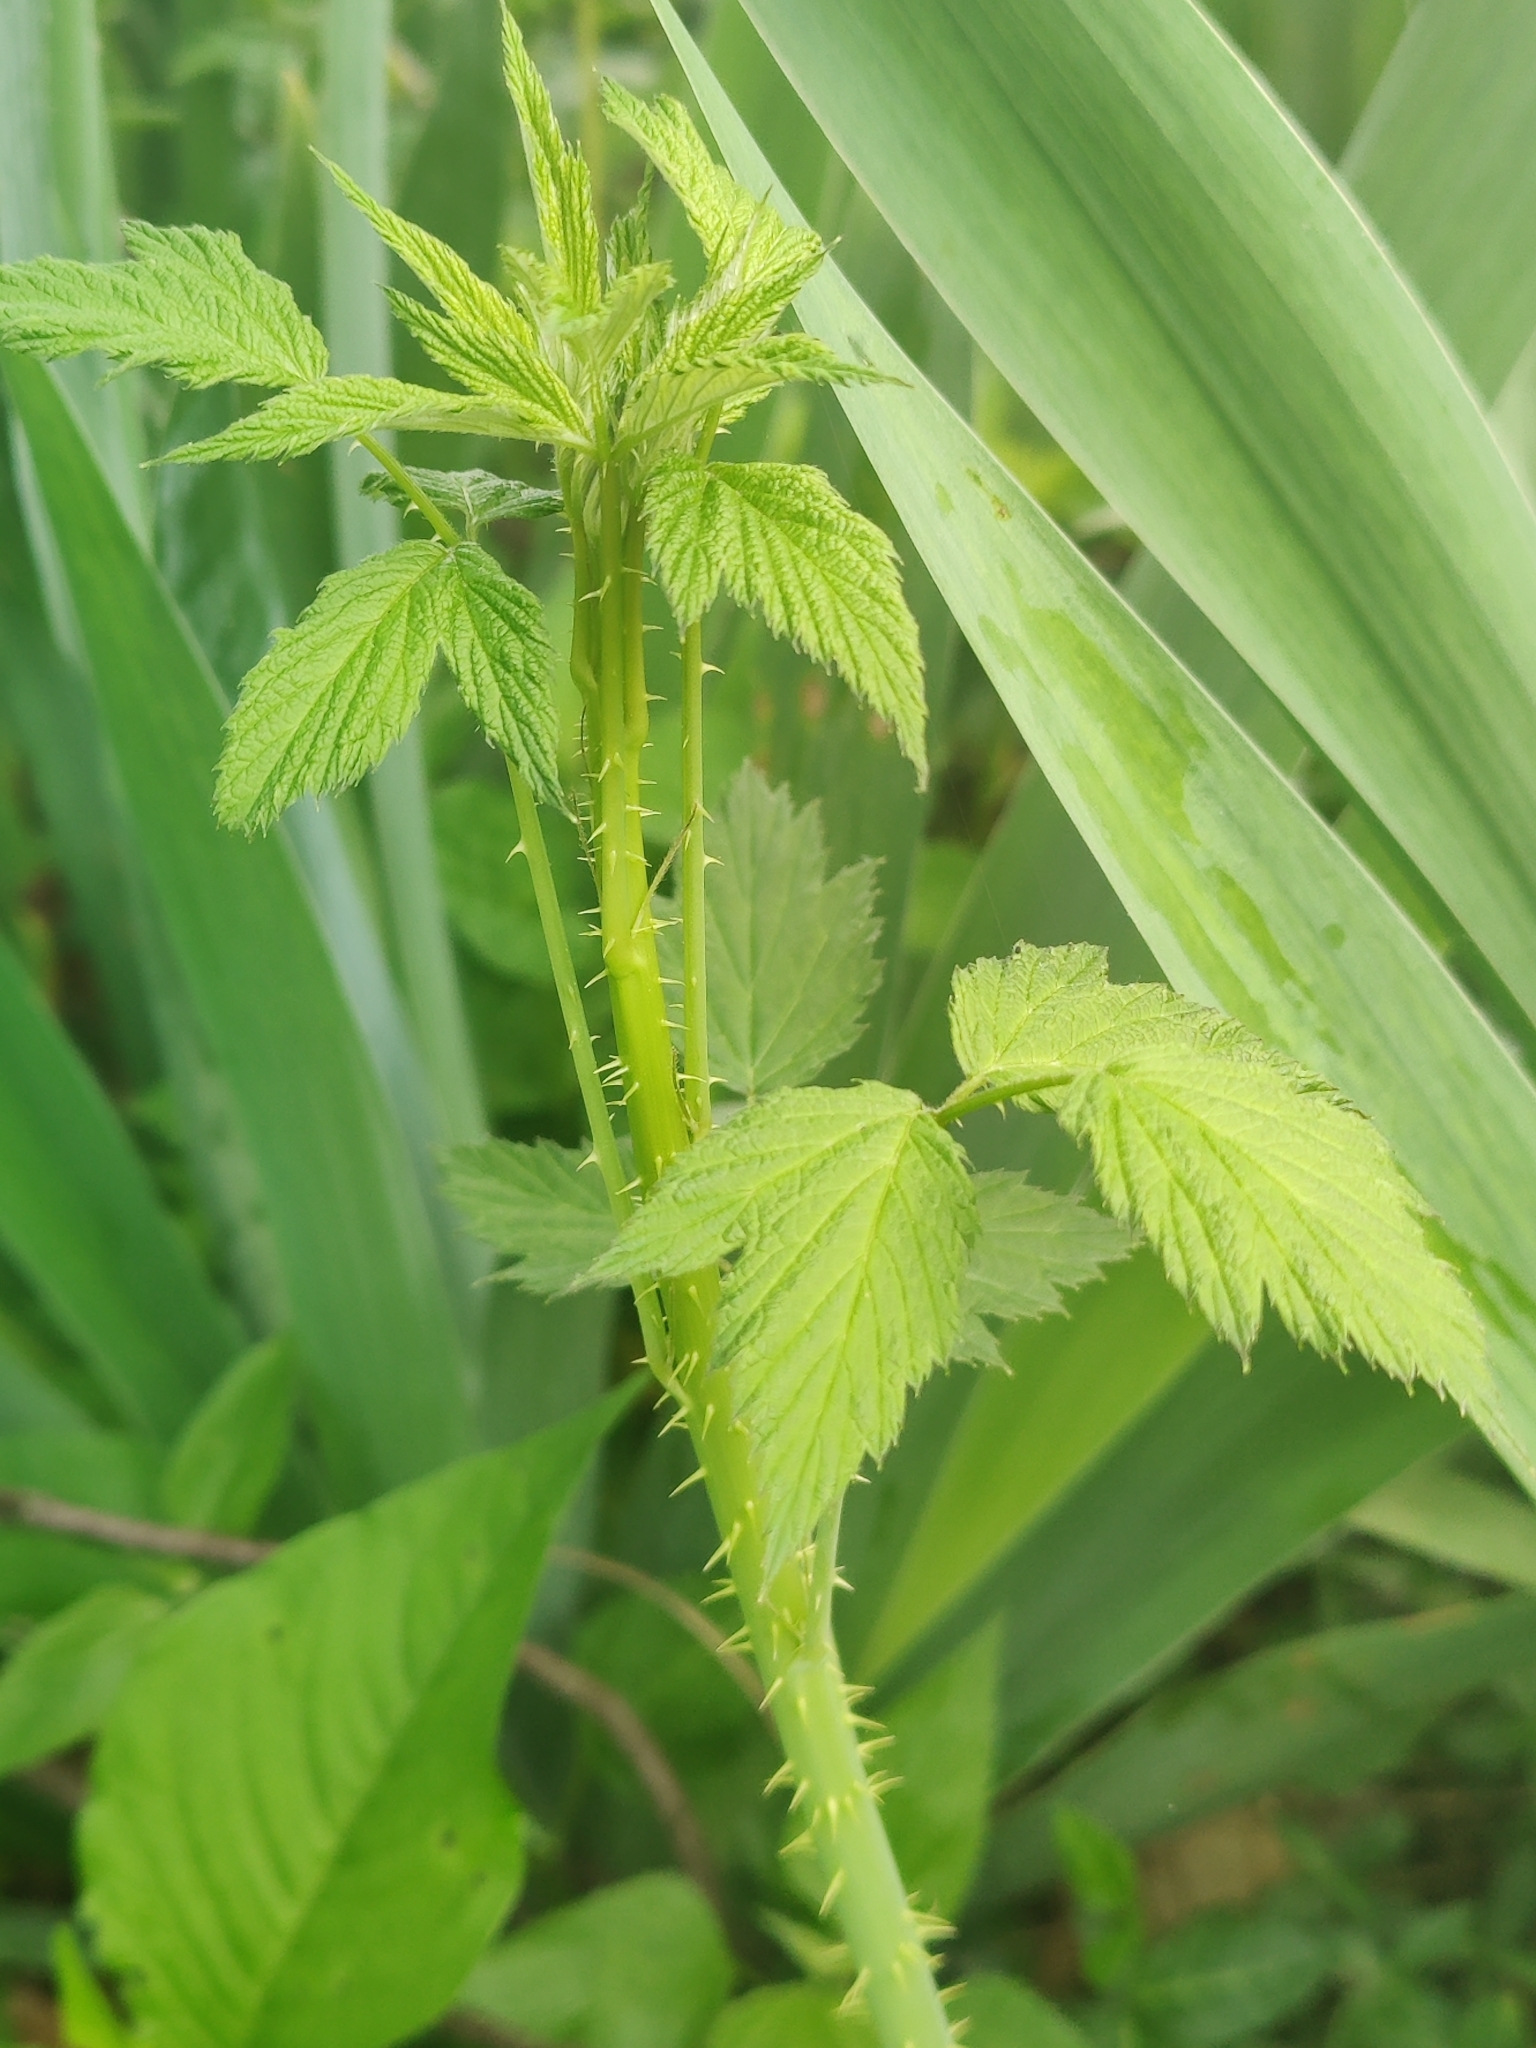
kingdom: Plantae
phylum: Tracheophyta
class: Magnoliopsida
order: Rosales
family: Rosaceae
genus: Rubus
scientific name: Rubus occidentalis
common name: Black raspberry
